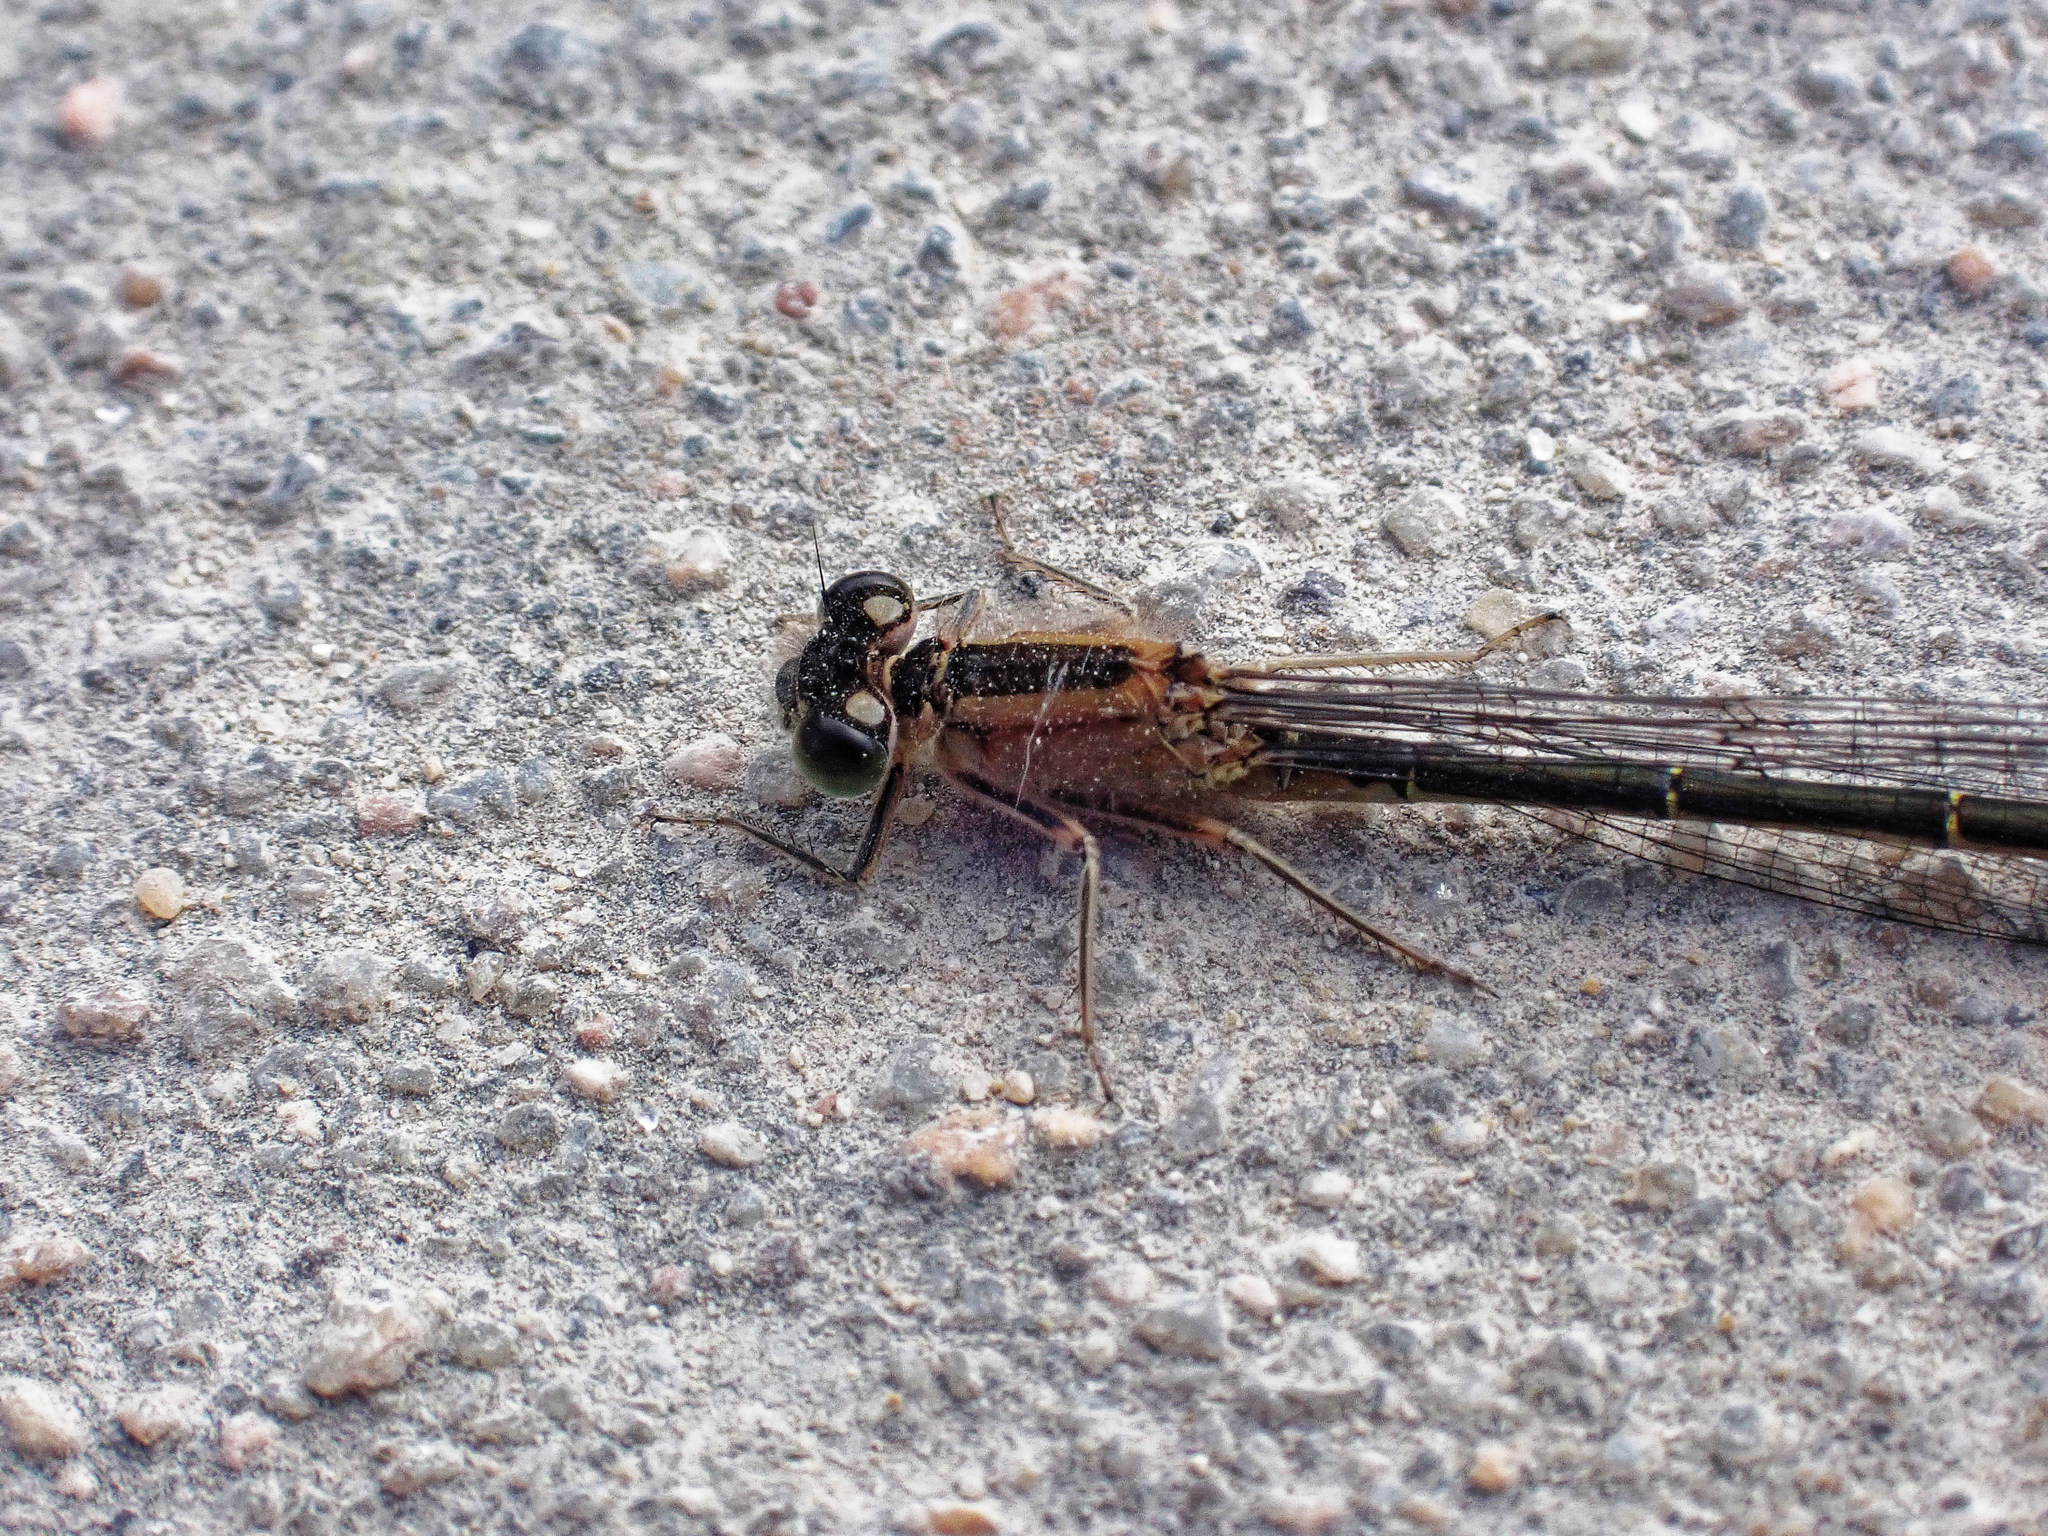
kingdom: Animalia
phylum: Arthropoda
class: Insecta
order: Odonata
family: Coenagrionidae
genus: Ischnura
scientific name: Ischnura elegans
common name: Blue-tailed damselfly
